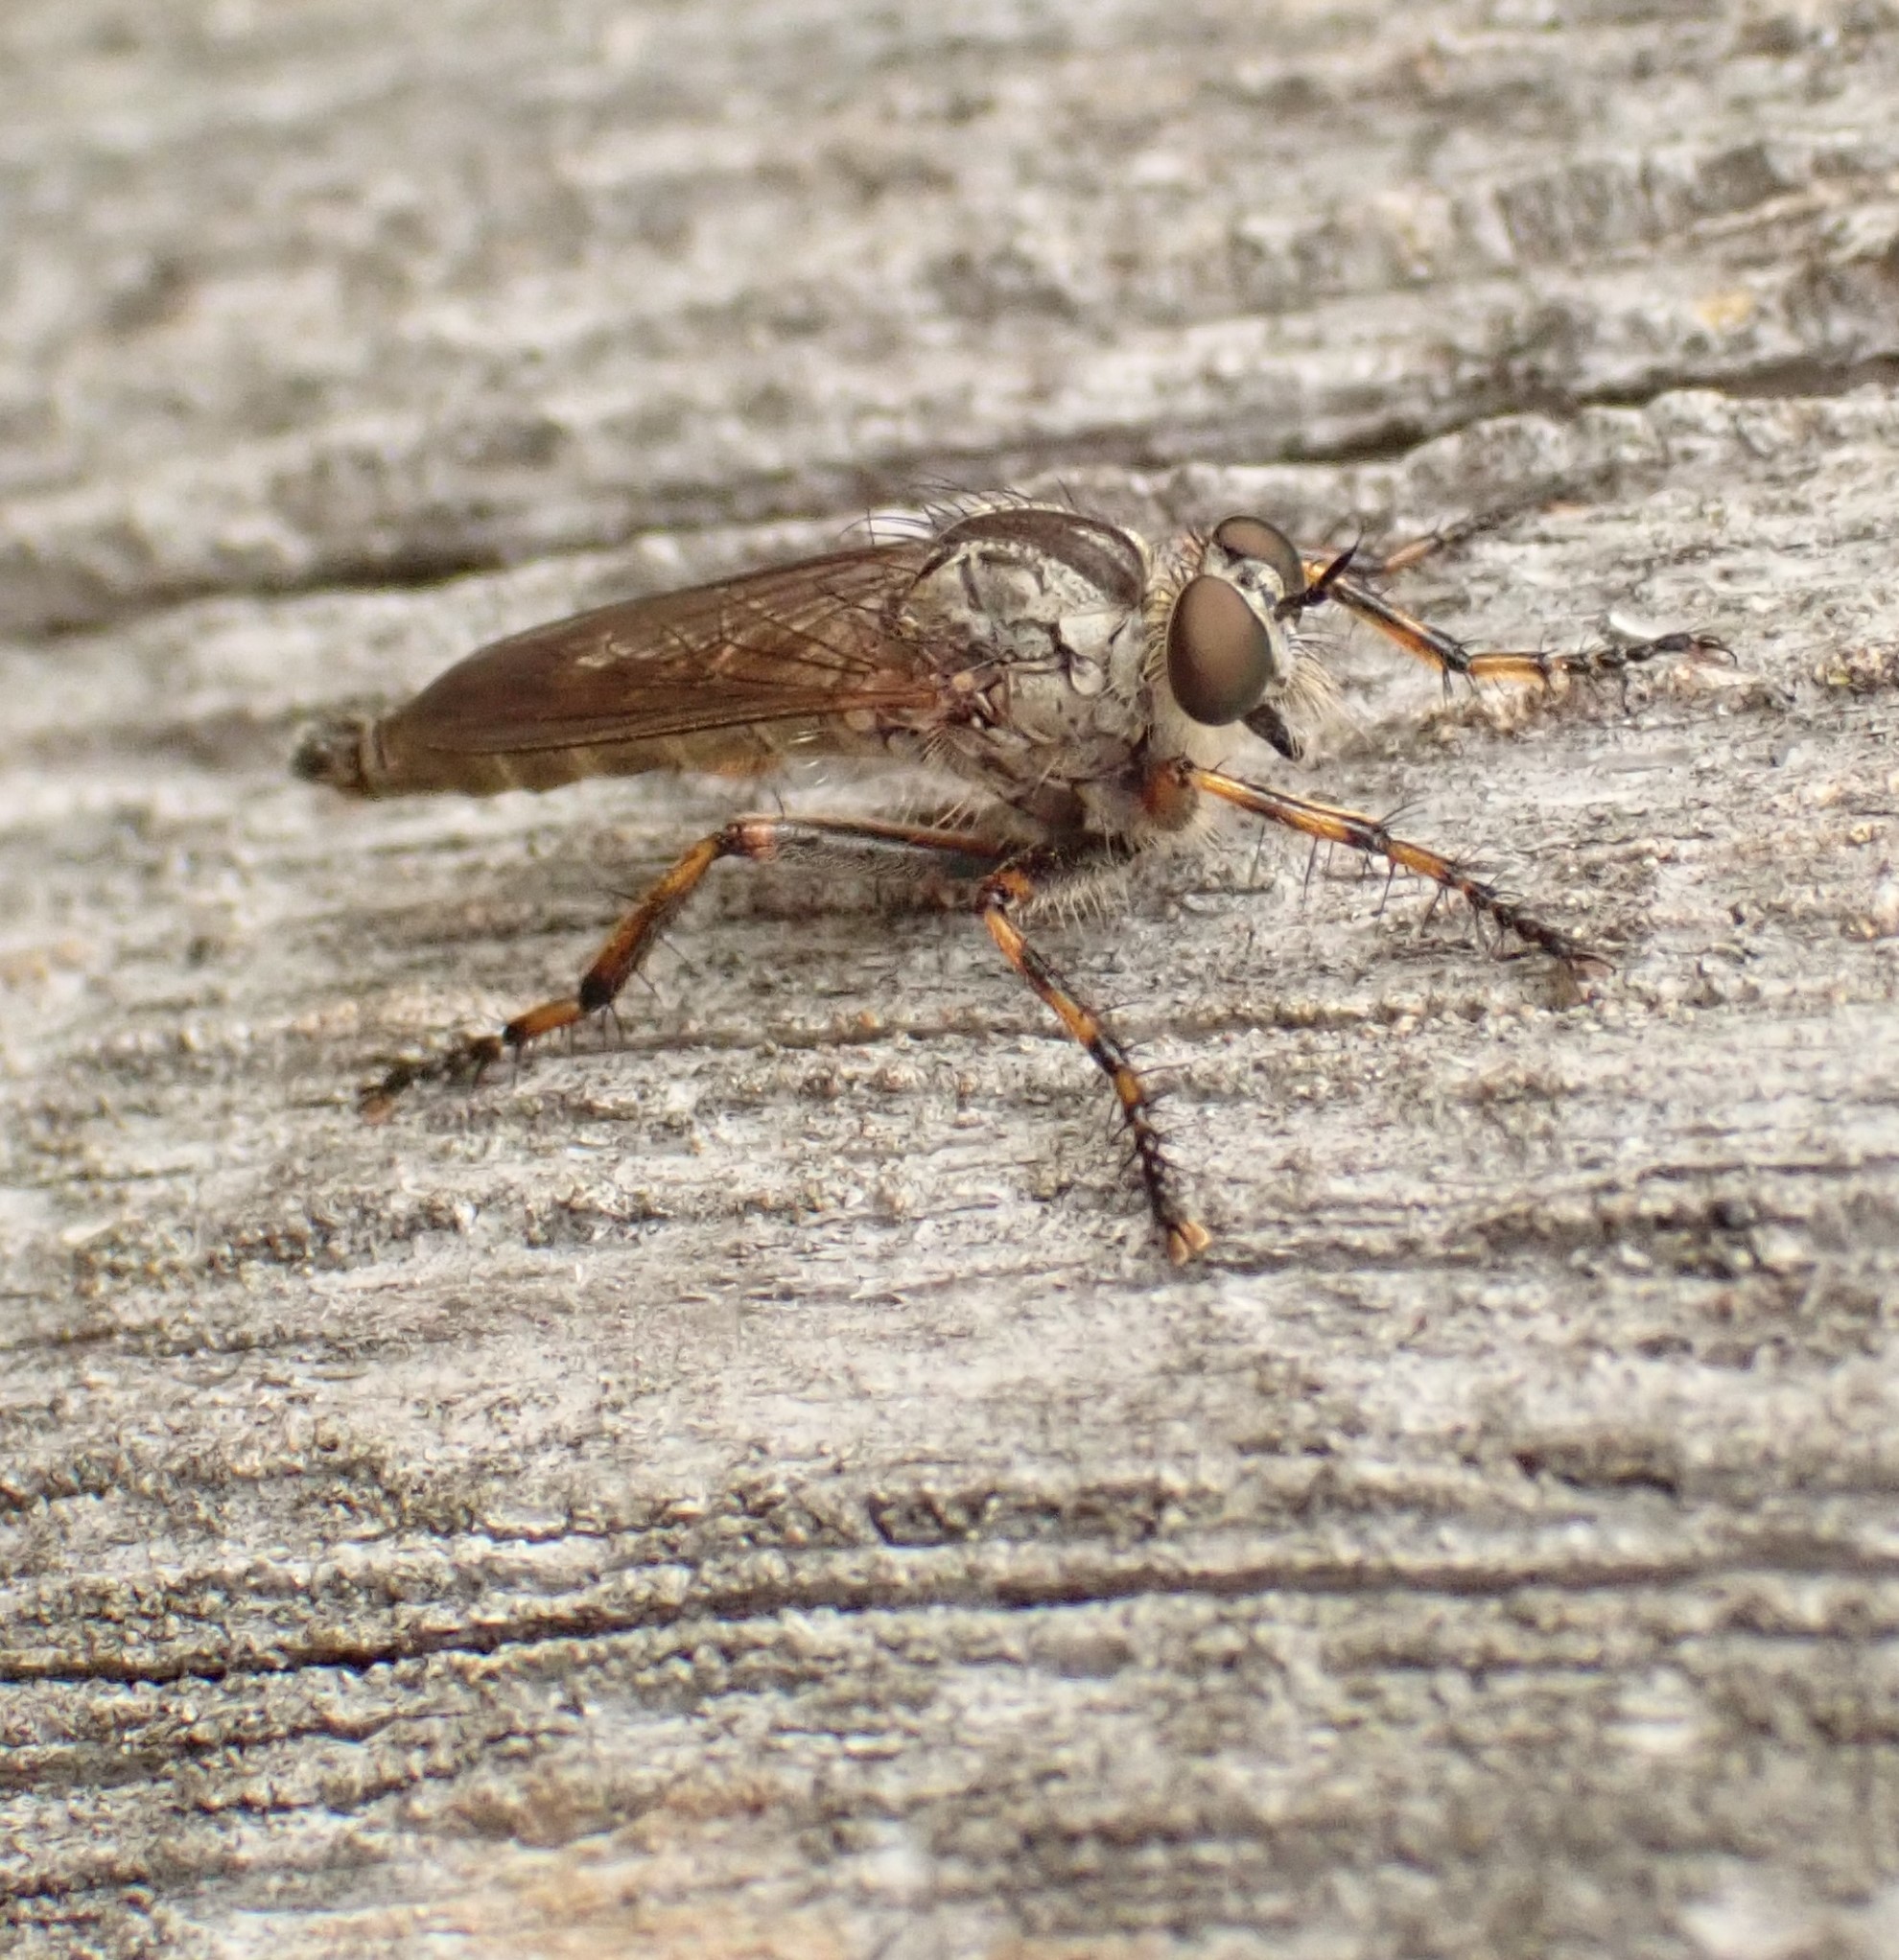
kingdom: Animalia
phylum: Arthropoda
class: Insecta
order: Diptera
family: Asilidae
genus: Epitriptus
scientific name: Epitriptus cingulatus
